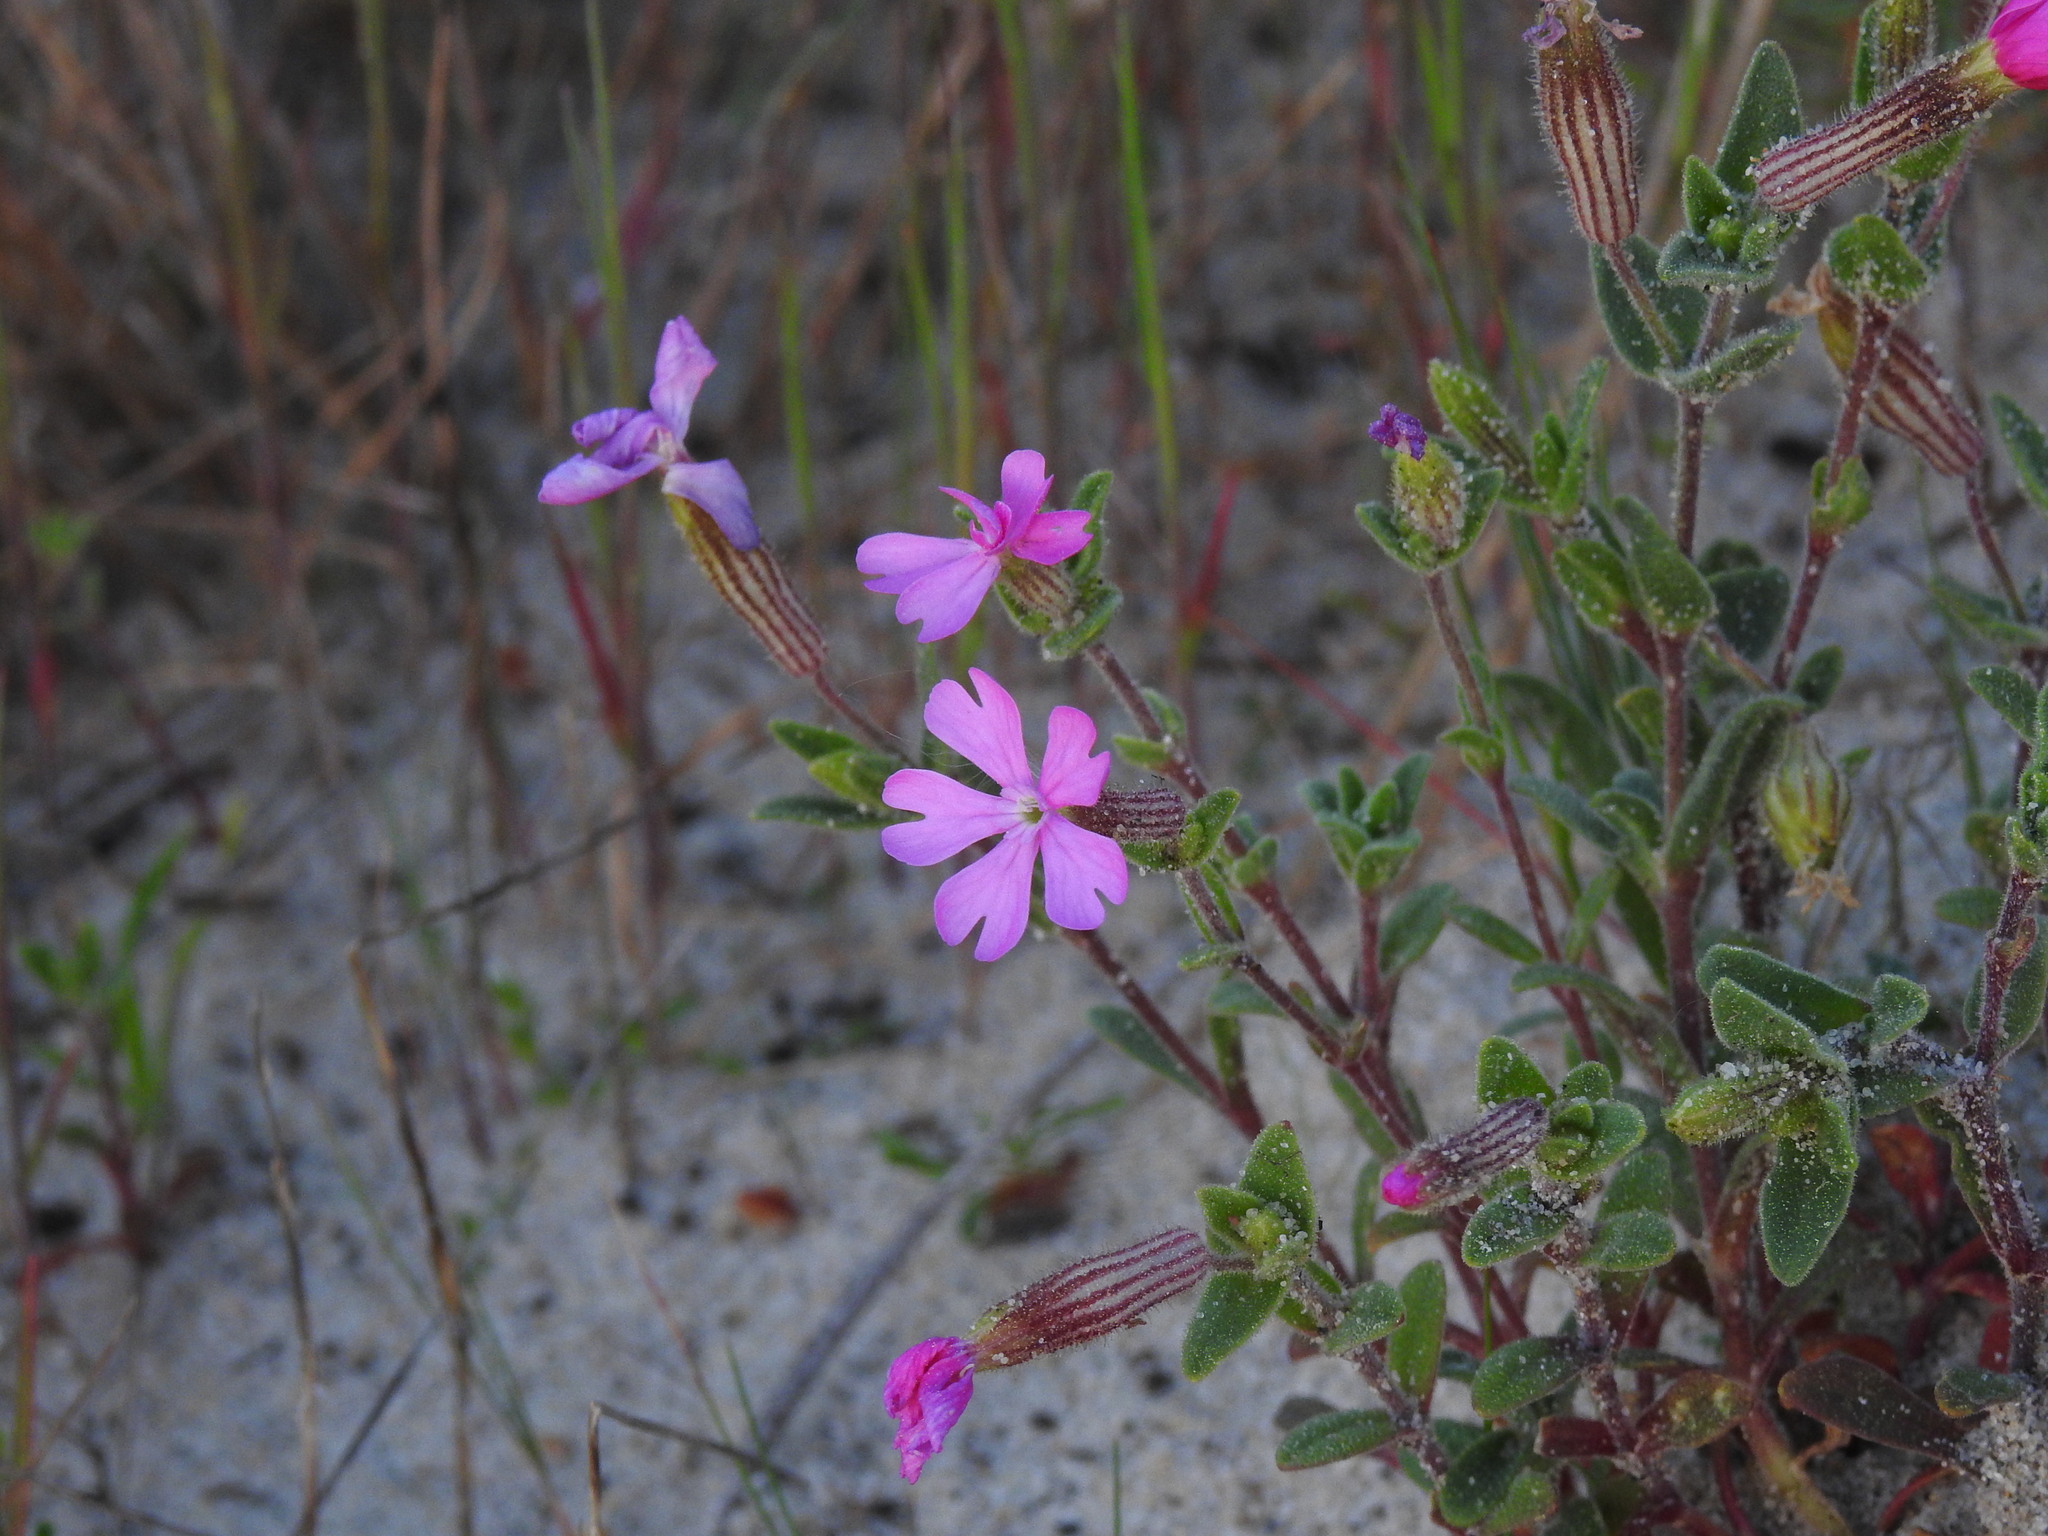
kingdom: Plantae
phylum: Tracheophyta
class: Magnoliopsida
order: Caryophyllales
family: Caryophyllaceae
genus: Silene
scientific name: Silene littorea
